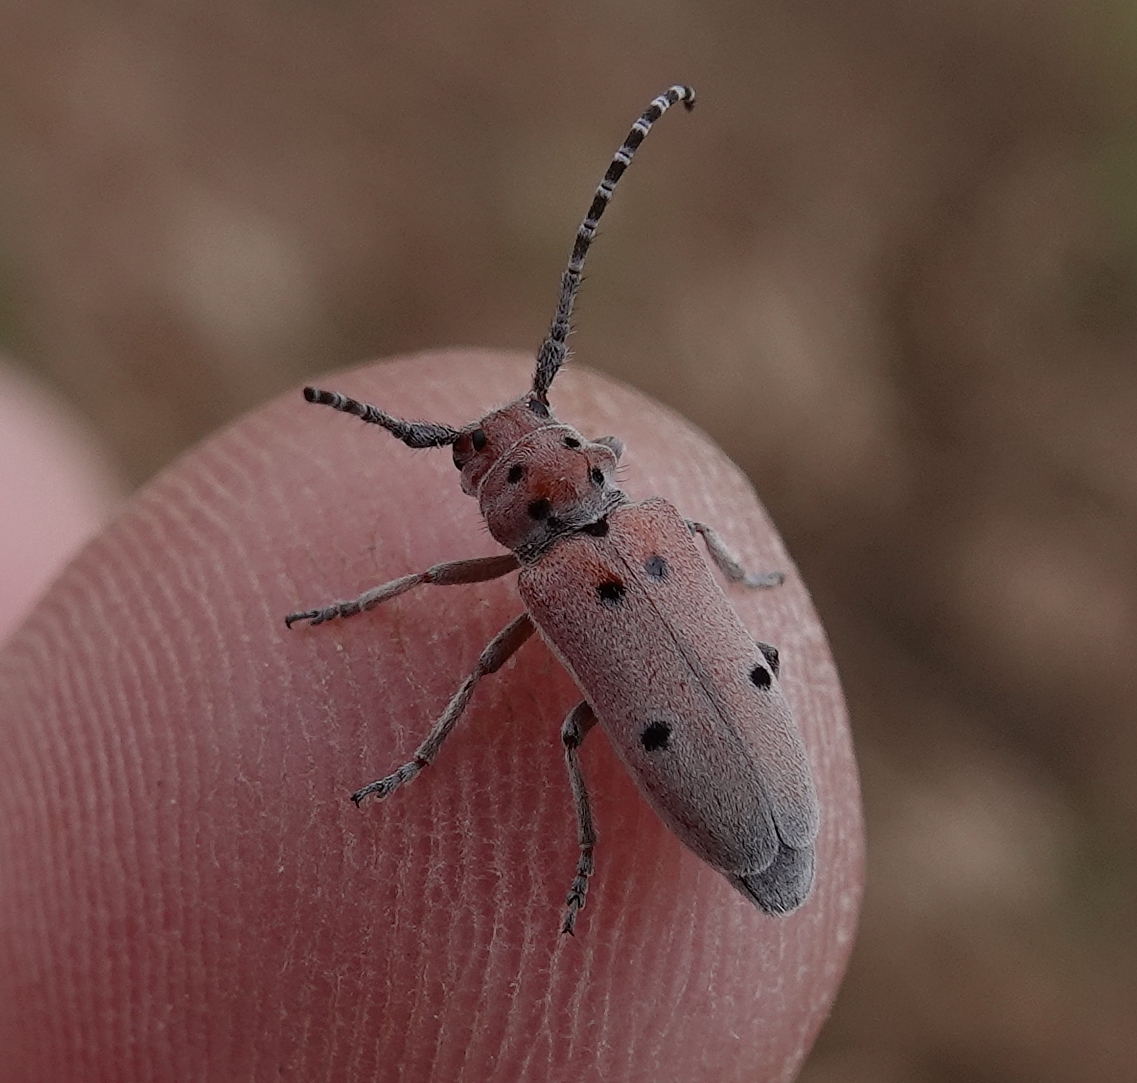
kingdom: Animalia
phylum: Arthropoda
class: Insecta
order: Coleoptera
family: Cerambycidae
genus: Tetraopes
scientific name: Tetraopes annulatus
